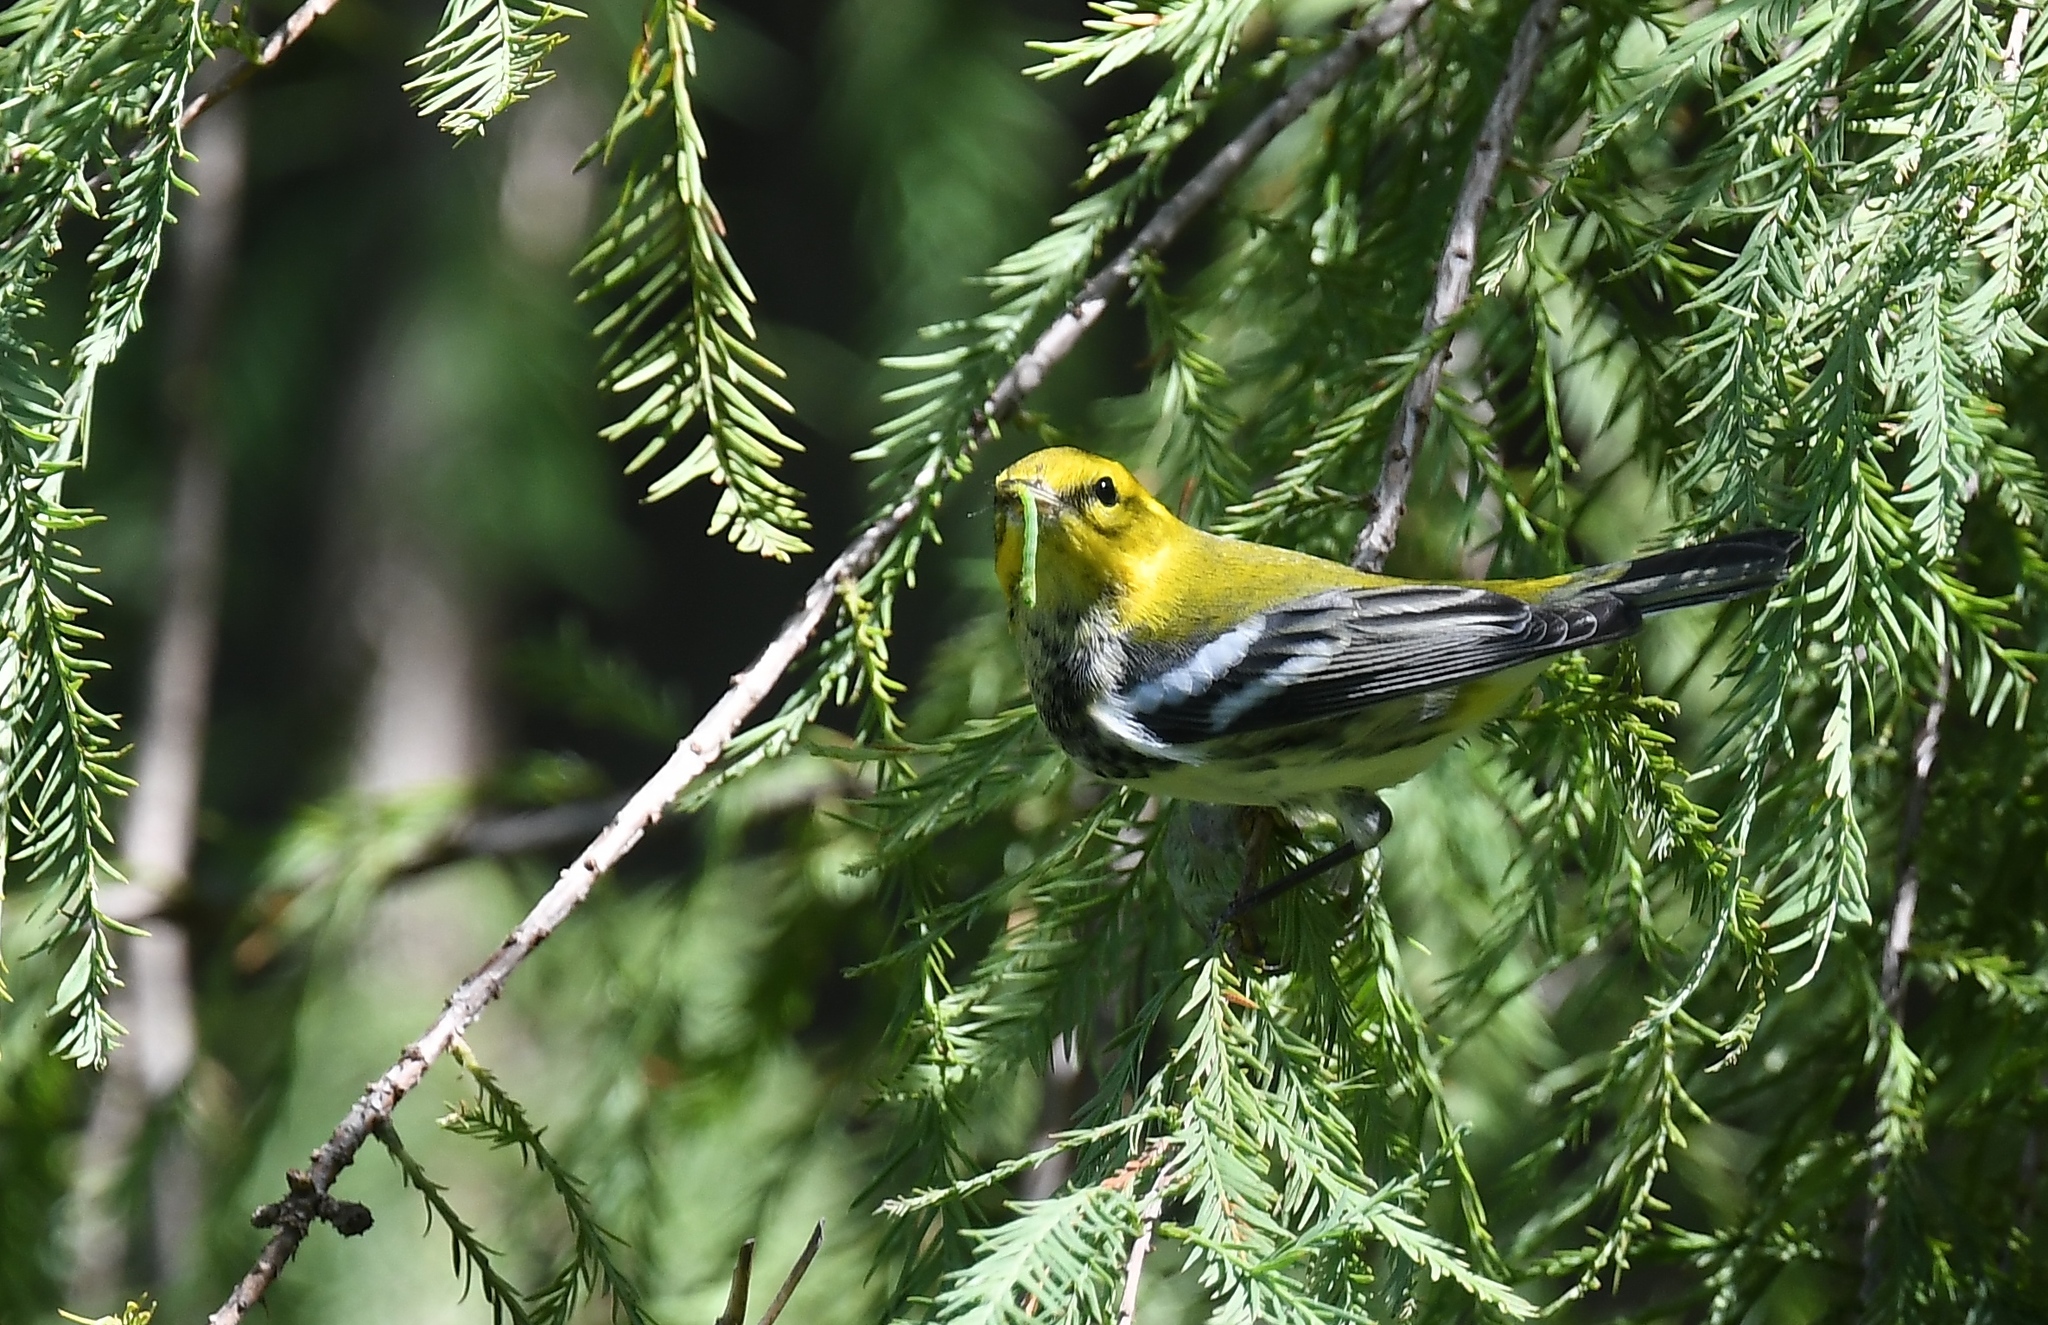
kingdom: Animalia
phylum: Chordata
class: Aves
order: Passeriformes
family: Parulidae
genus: Setophaga
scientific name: Setophaga virens
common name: Black-throated green warbler
